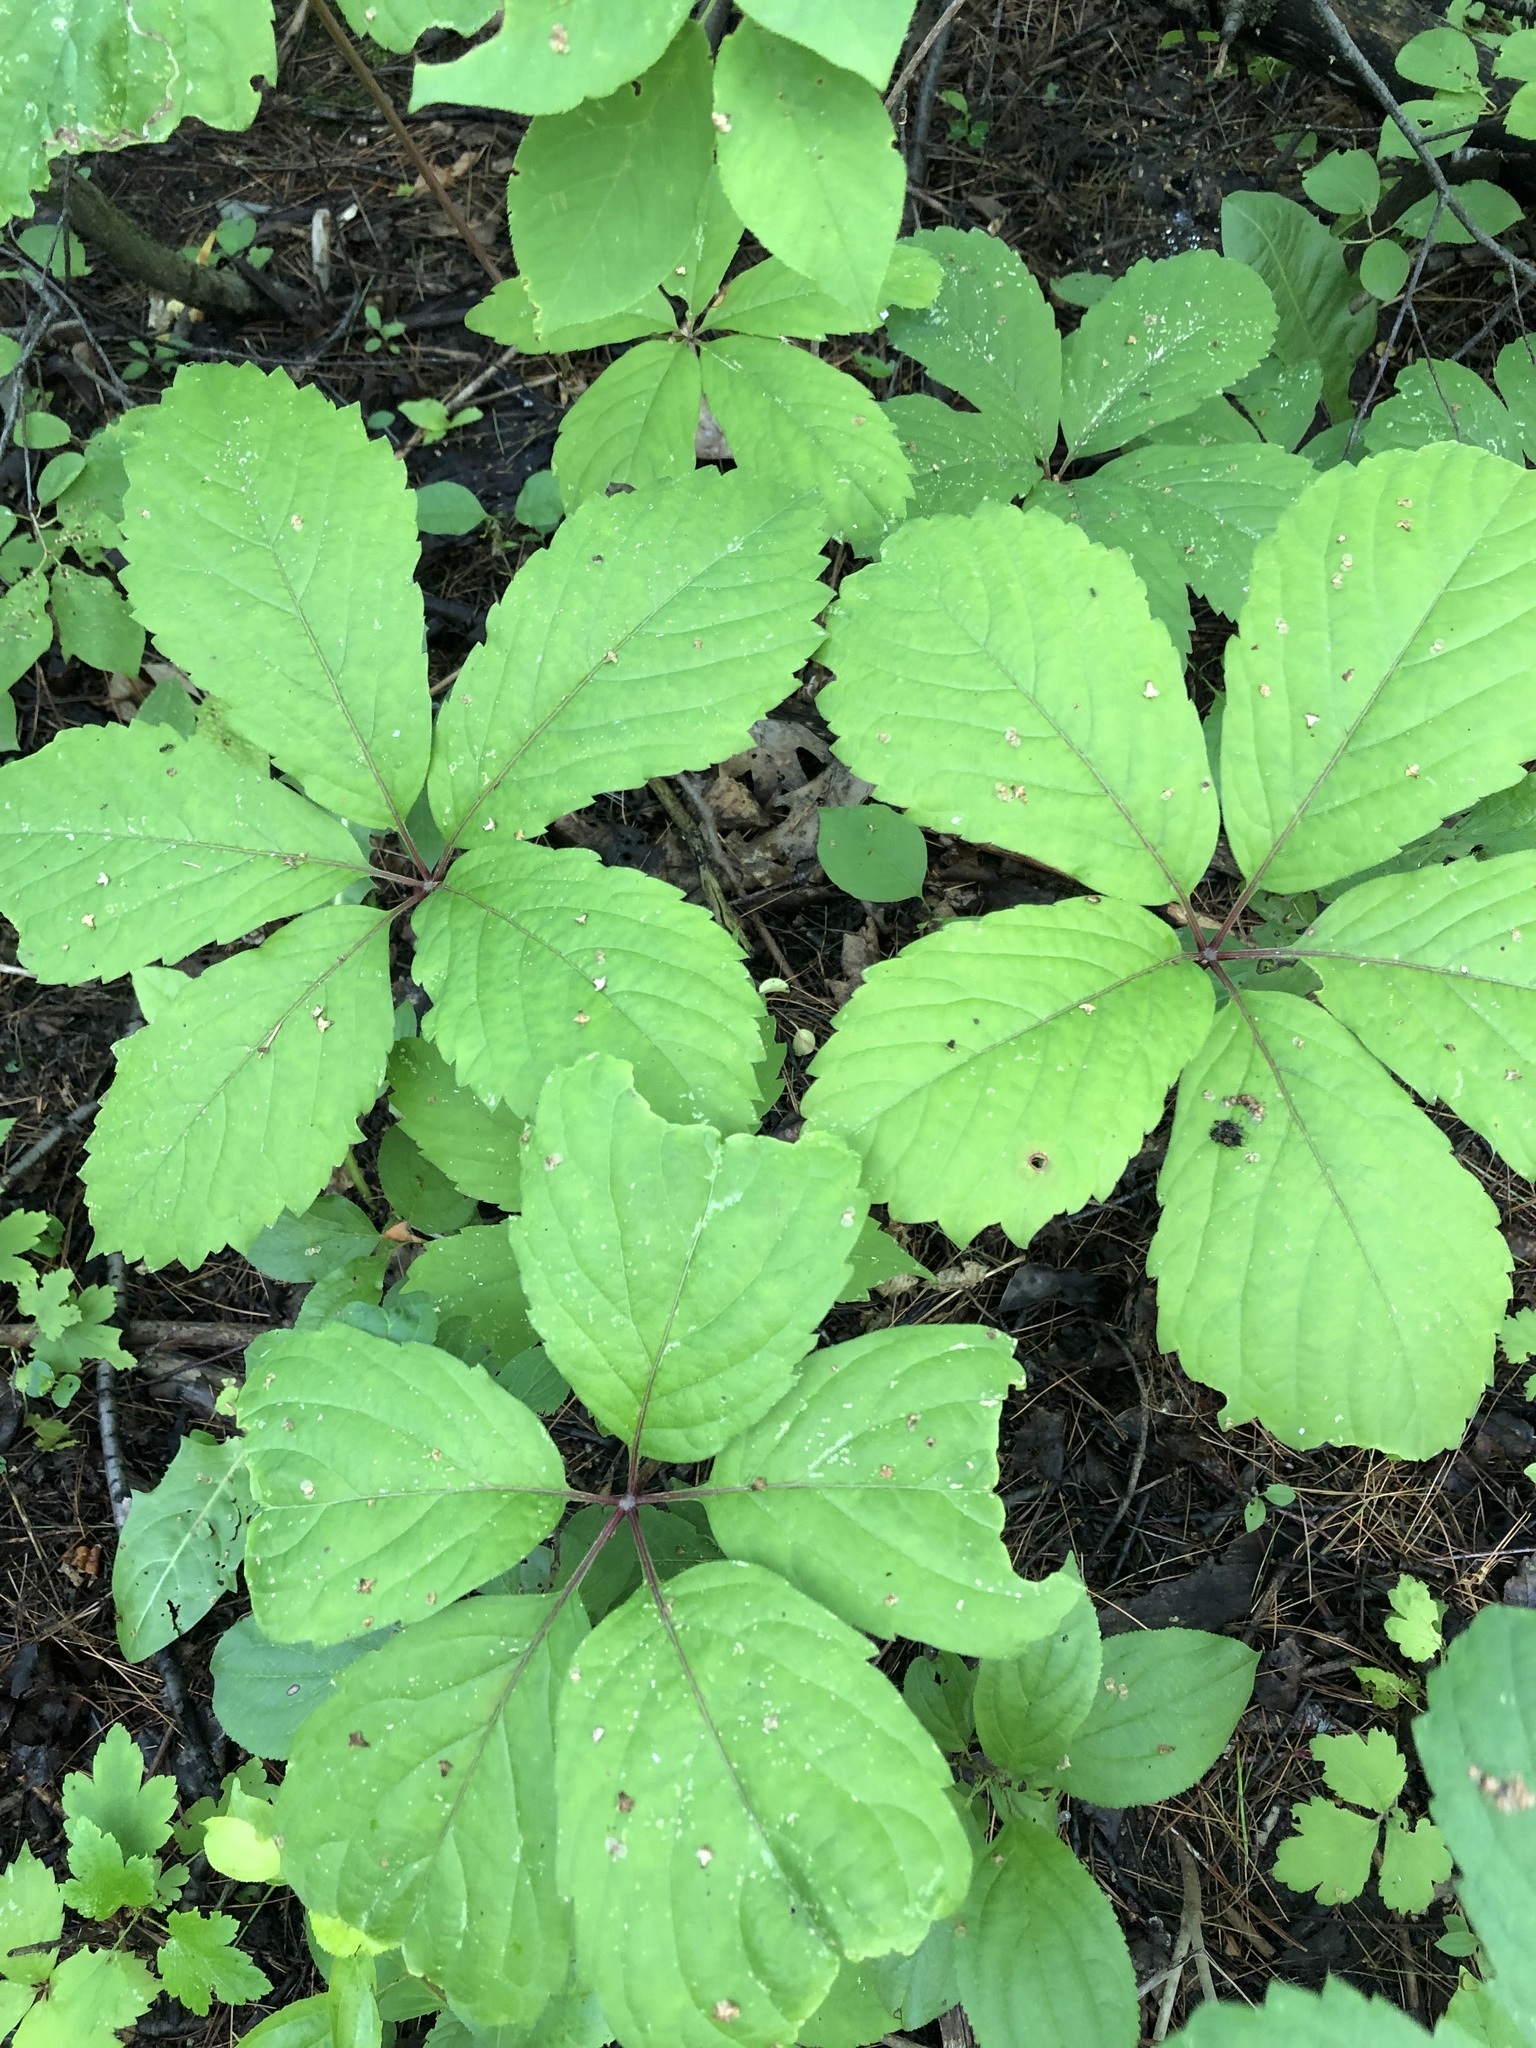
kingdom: Plantae
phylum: Tracheophyta
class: Magnoliopsida
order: Vitales
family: Vitaceae
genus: Parthenocissus
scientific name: Parthenocissus quinquefolia
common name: Virginia-creeper
